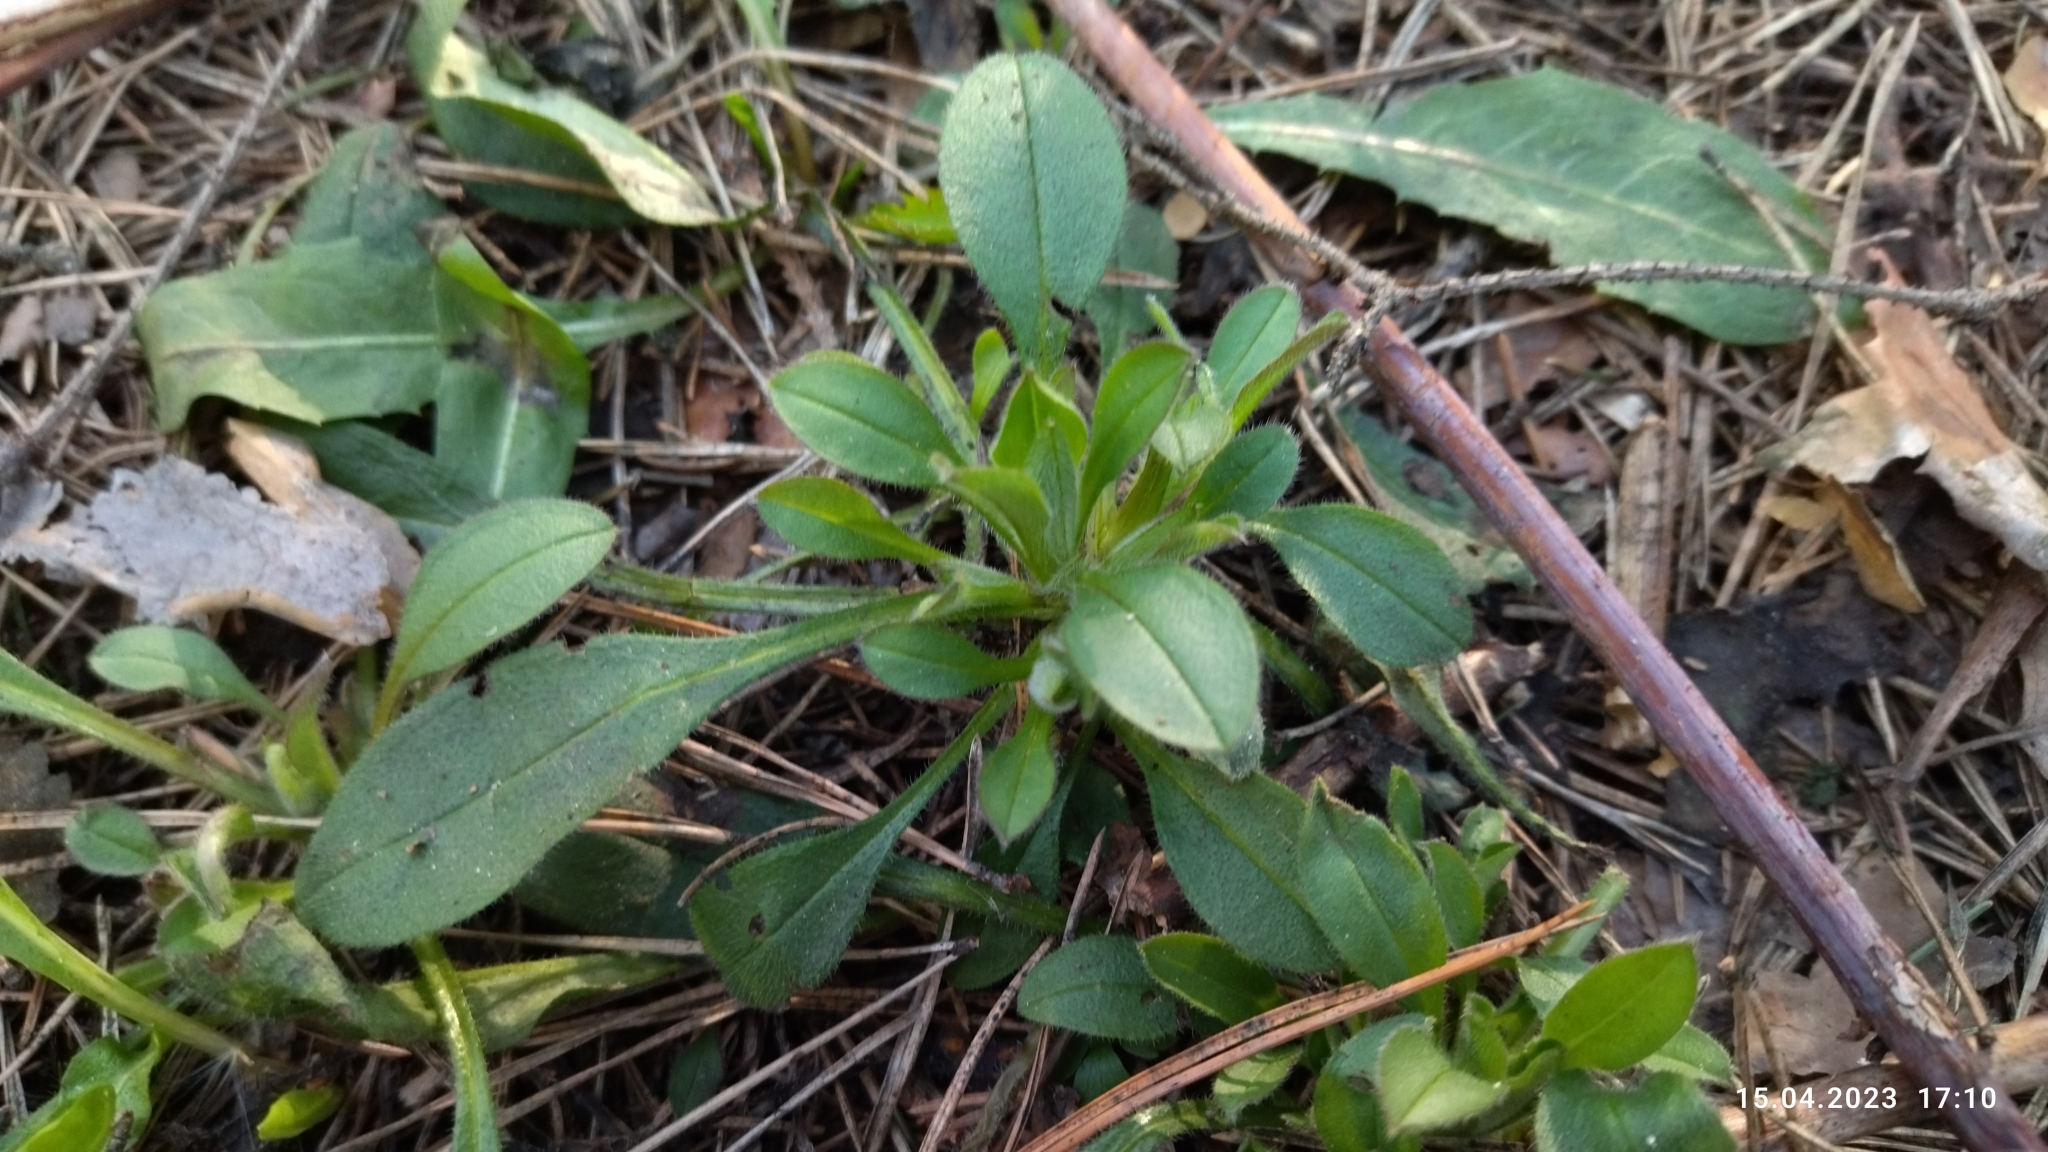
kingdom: Plantae
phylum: Tracheophyta
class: Magnoliopsida
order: Boraginales
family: Boraginaceae
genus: Myosotis
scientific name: Myosotis sparsiflora
